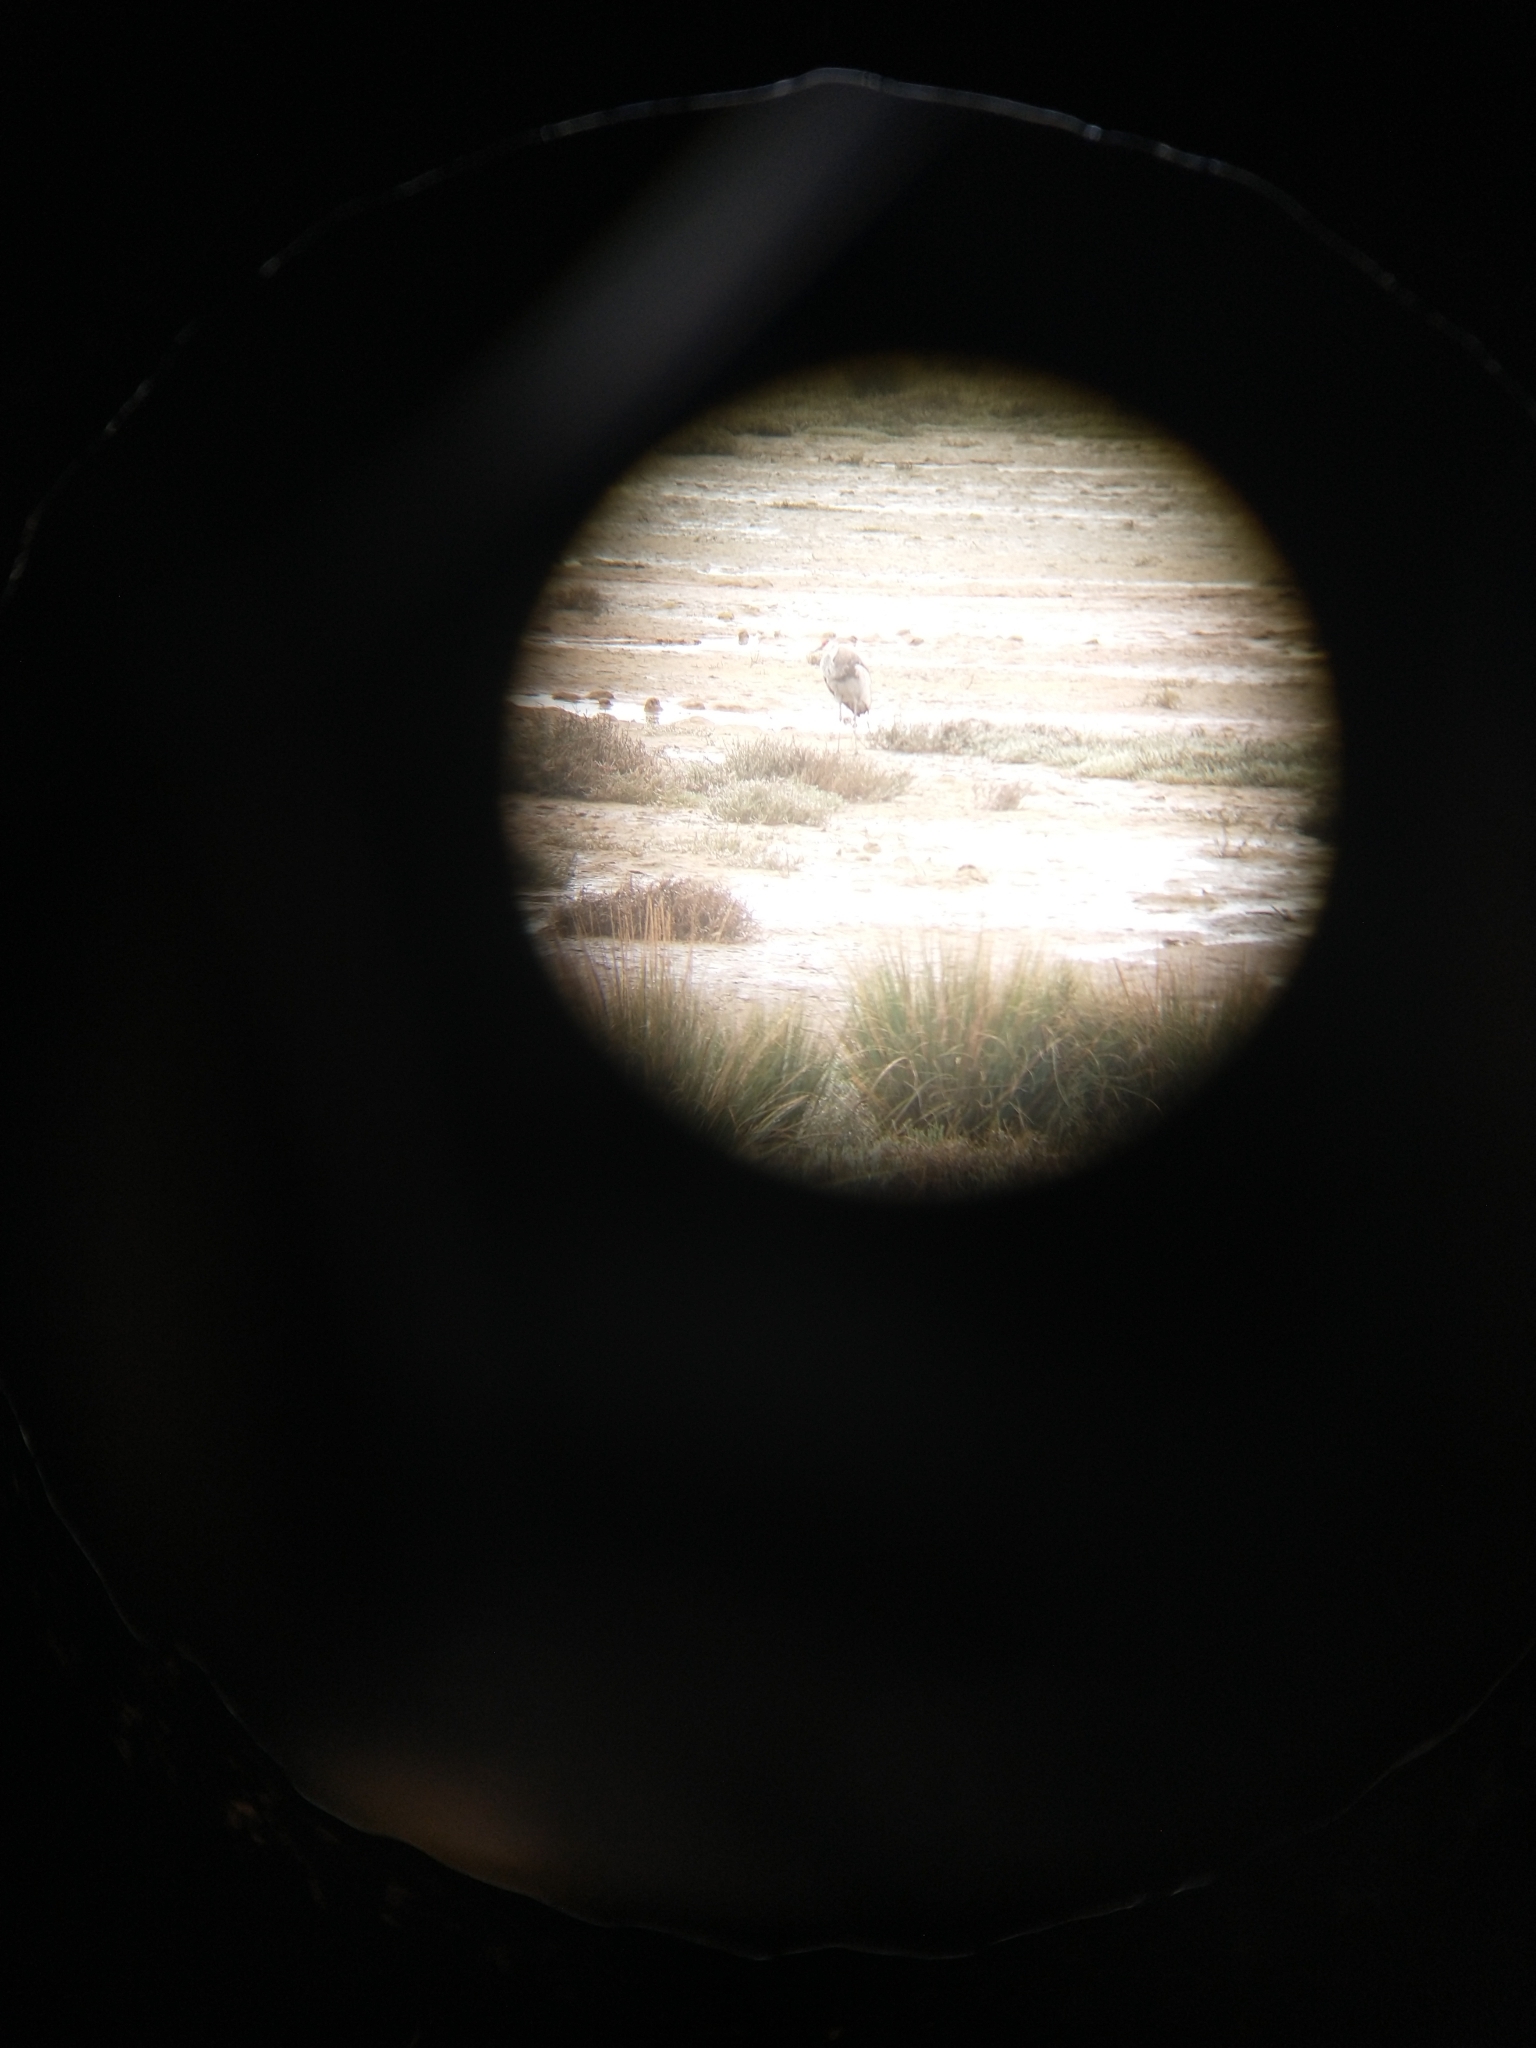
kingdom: Animalia
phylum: Chordata
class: Aves
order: Gruiformes
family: Gruidae
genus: Grus
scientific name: Grus canadensis
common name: Sandhill crane
